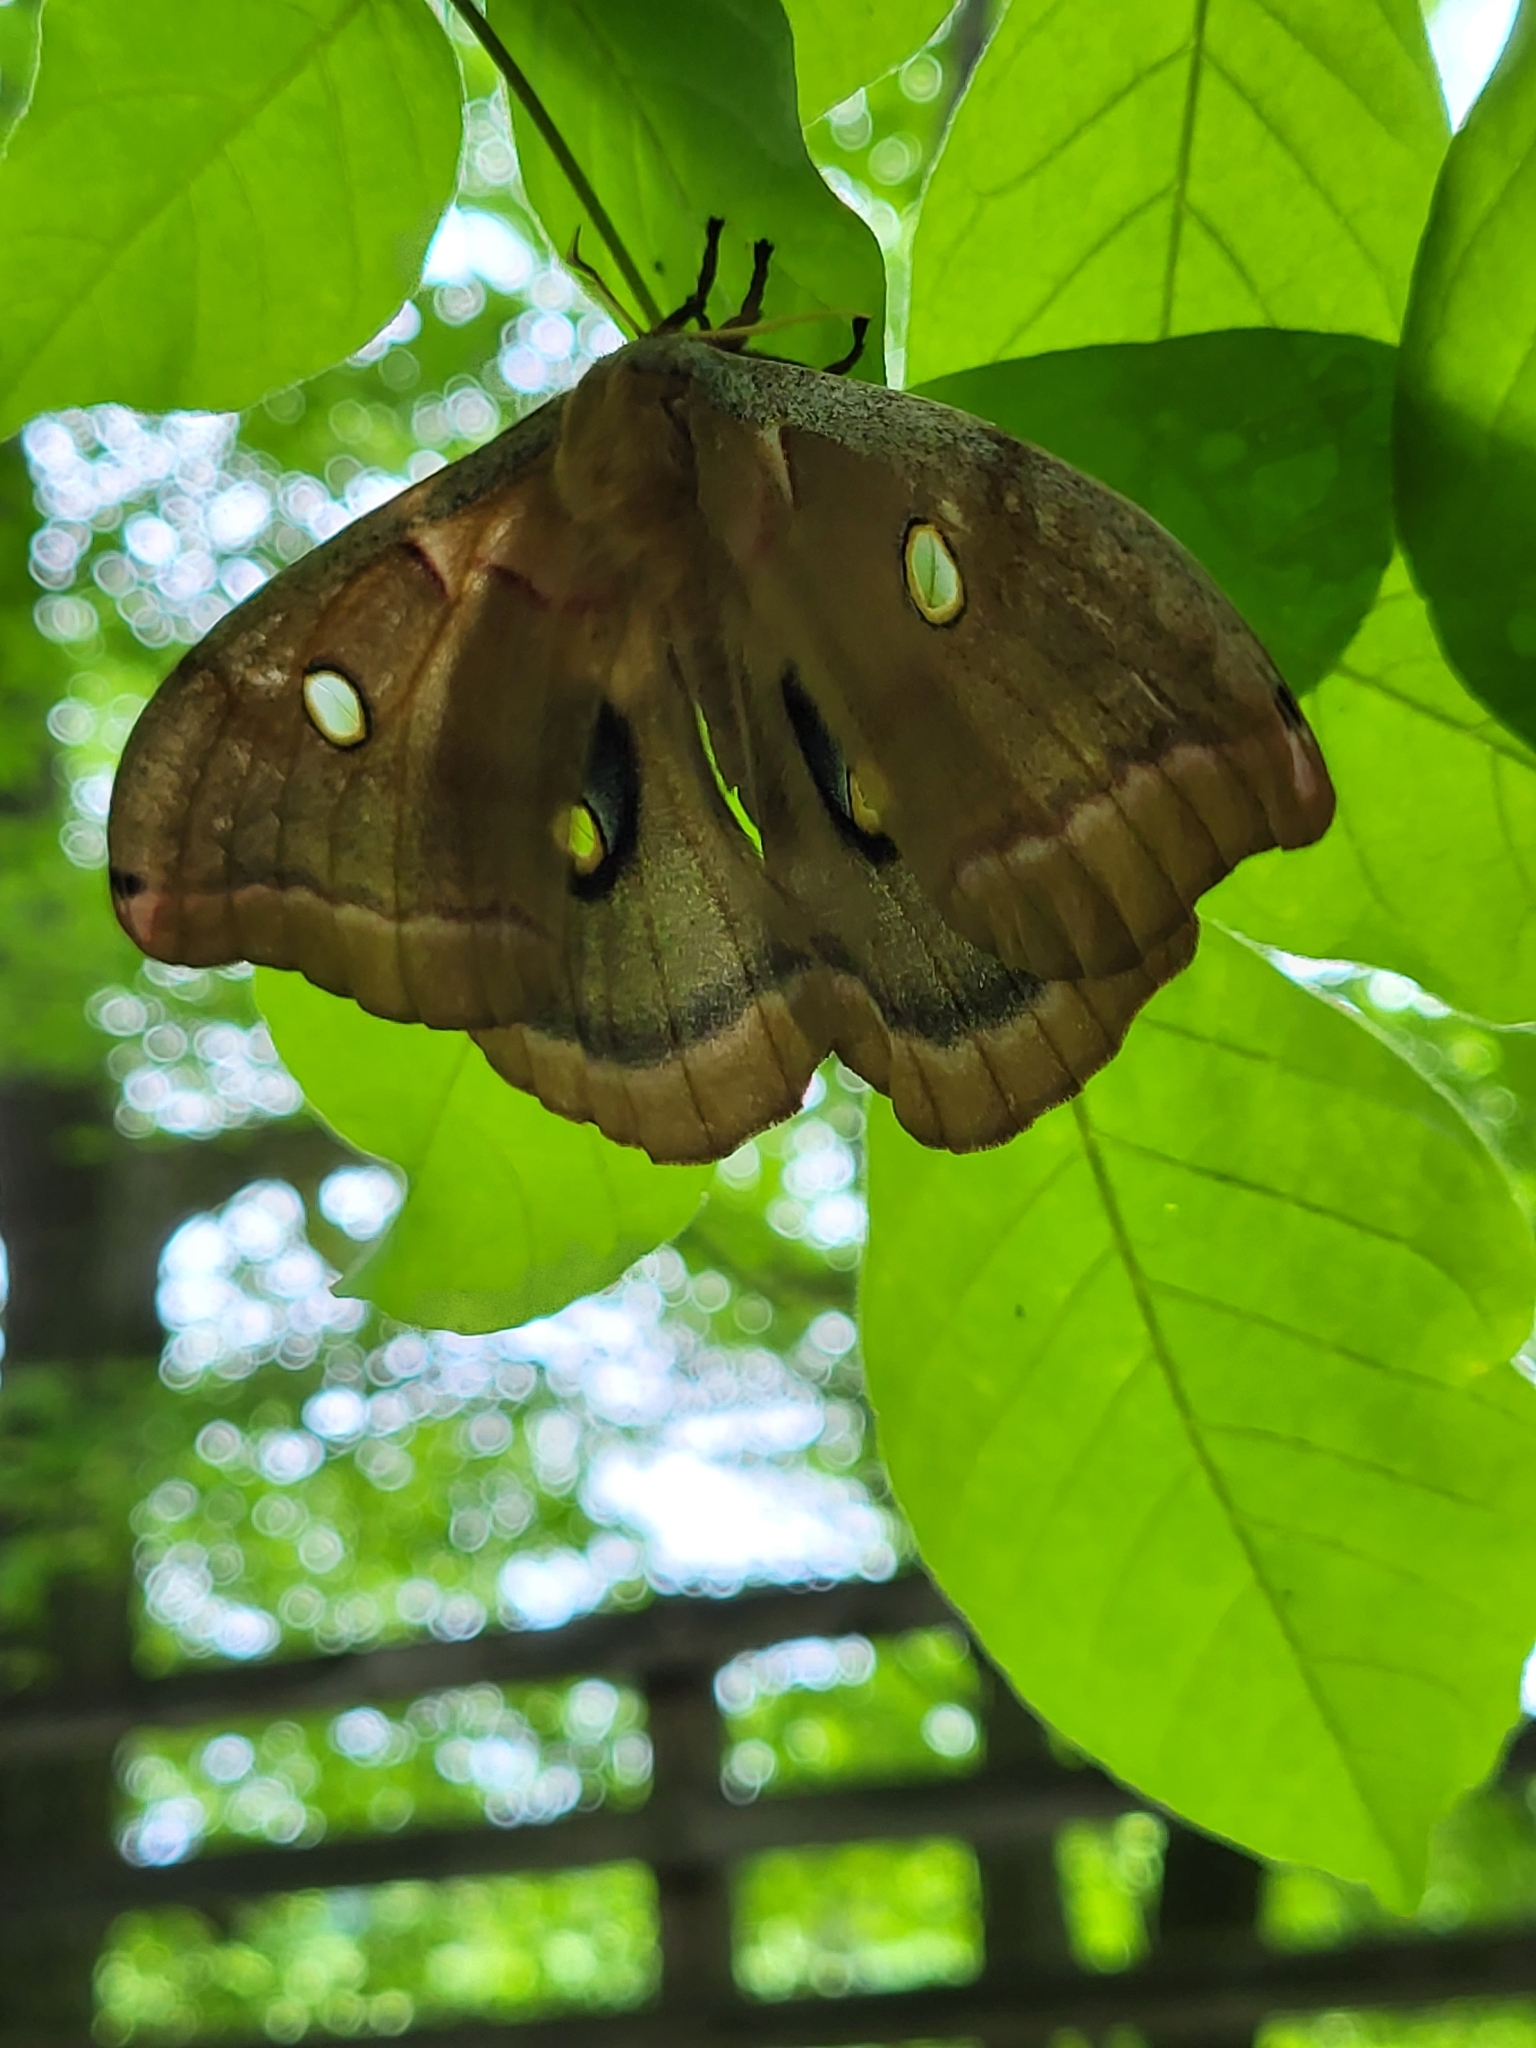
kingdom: Animalia
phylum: Arthropoda
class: Insecta
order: Lepidoptera
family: Saturniidae
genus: Antheraea
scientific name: Antheraea polyphemus
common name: Polyphemus moth
